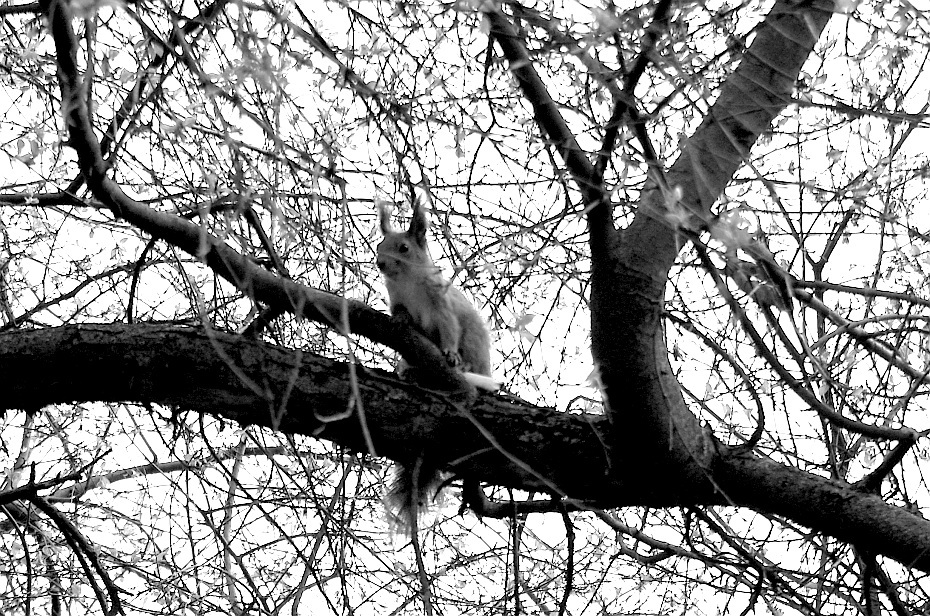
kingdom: Animalia
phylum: Chordata
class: Mammalia
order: Rodentia
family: Sciuridae
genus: Sciurus
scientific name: Sciurus vulgaris
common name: Eurasian red squirrel
